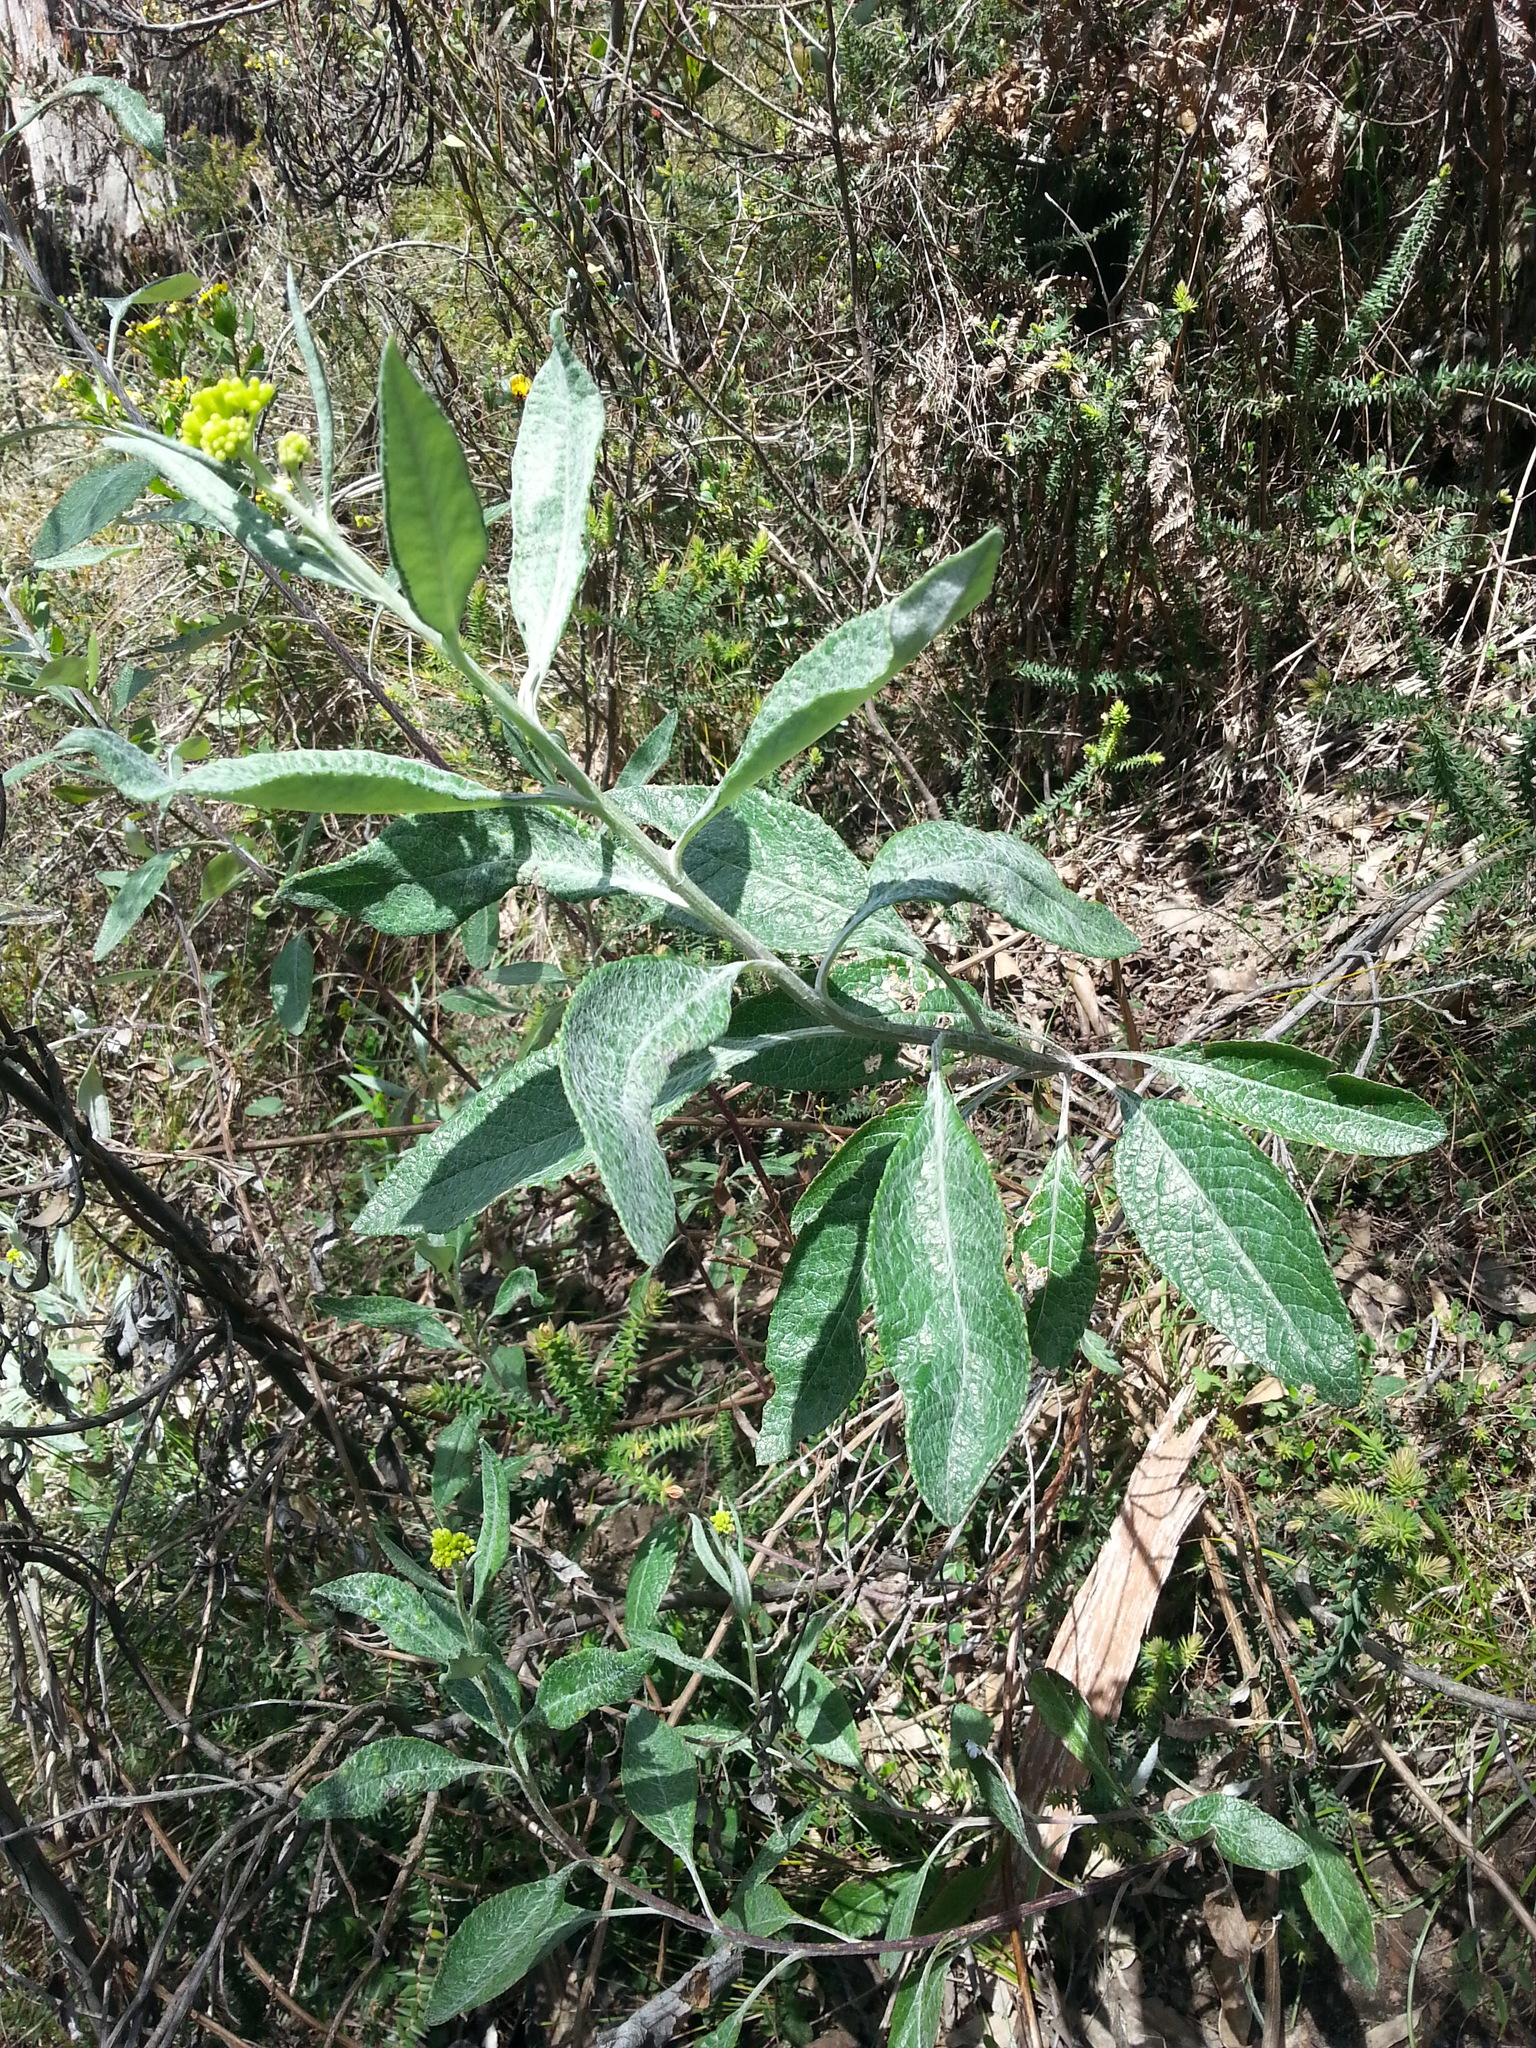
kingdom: Plantae
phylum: Tracheophyta
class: Magnoliopsida
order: Asterales
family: Asteraceae
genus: Senecio
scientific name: Senecio hypoleucus
